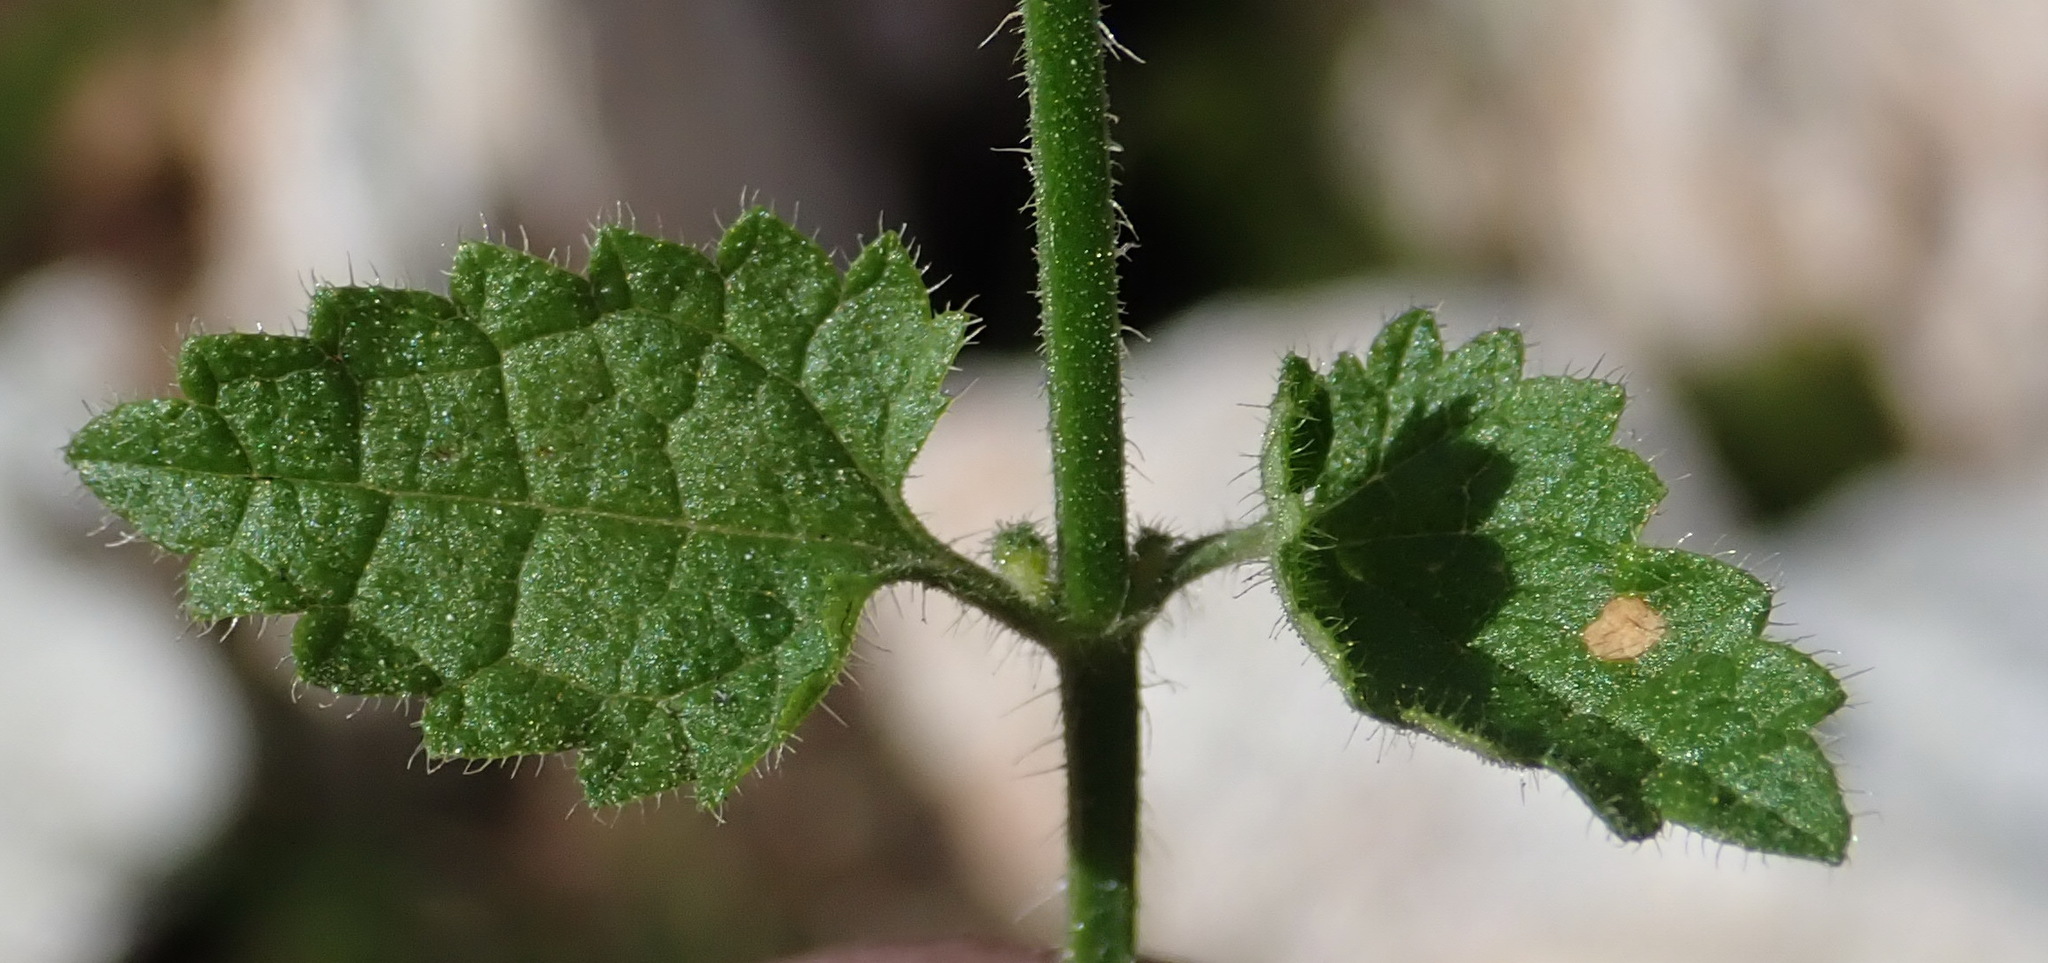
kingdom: Plantae
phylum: Tracheophyta
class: Magnoliopsida
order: Lamiales
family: Lamiaceae
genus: Stachys
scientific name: Stachys aethiopica
